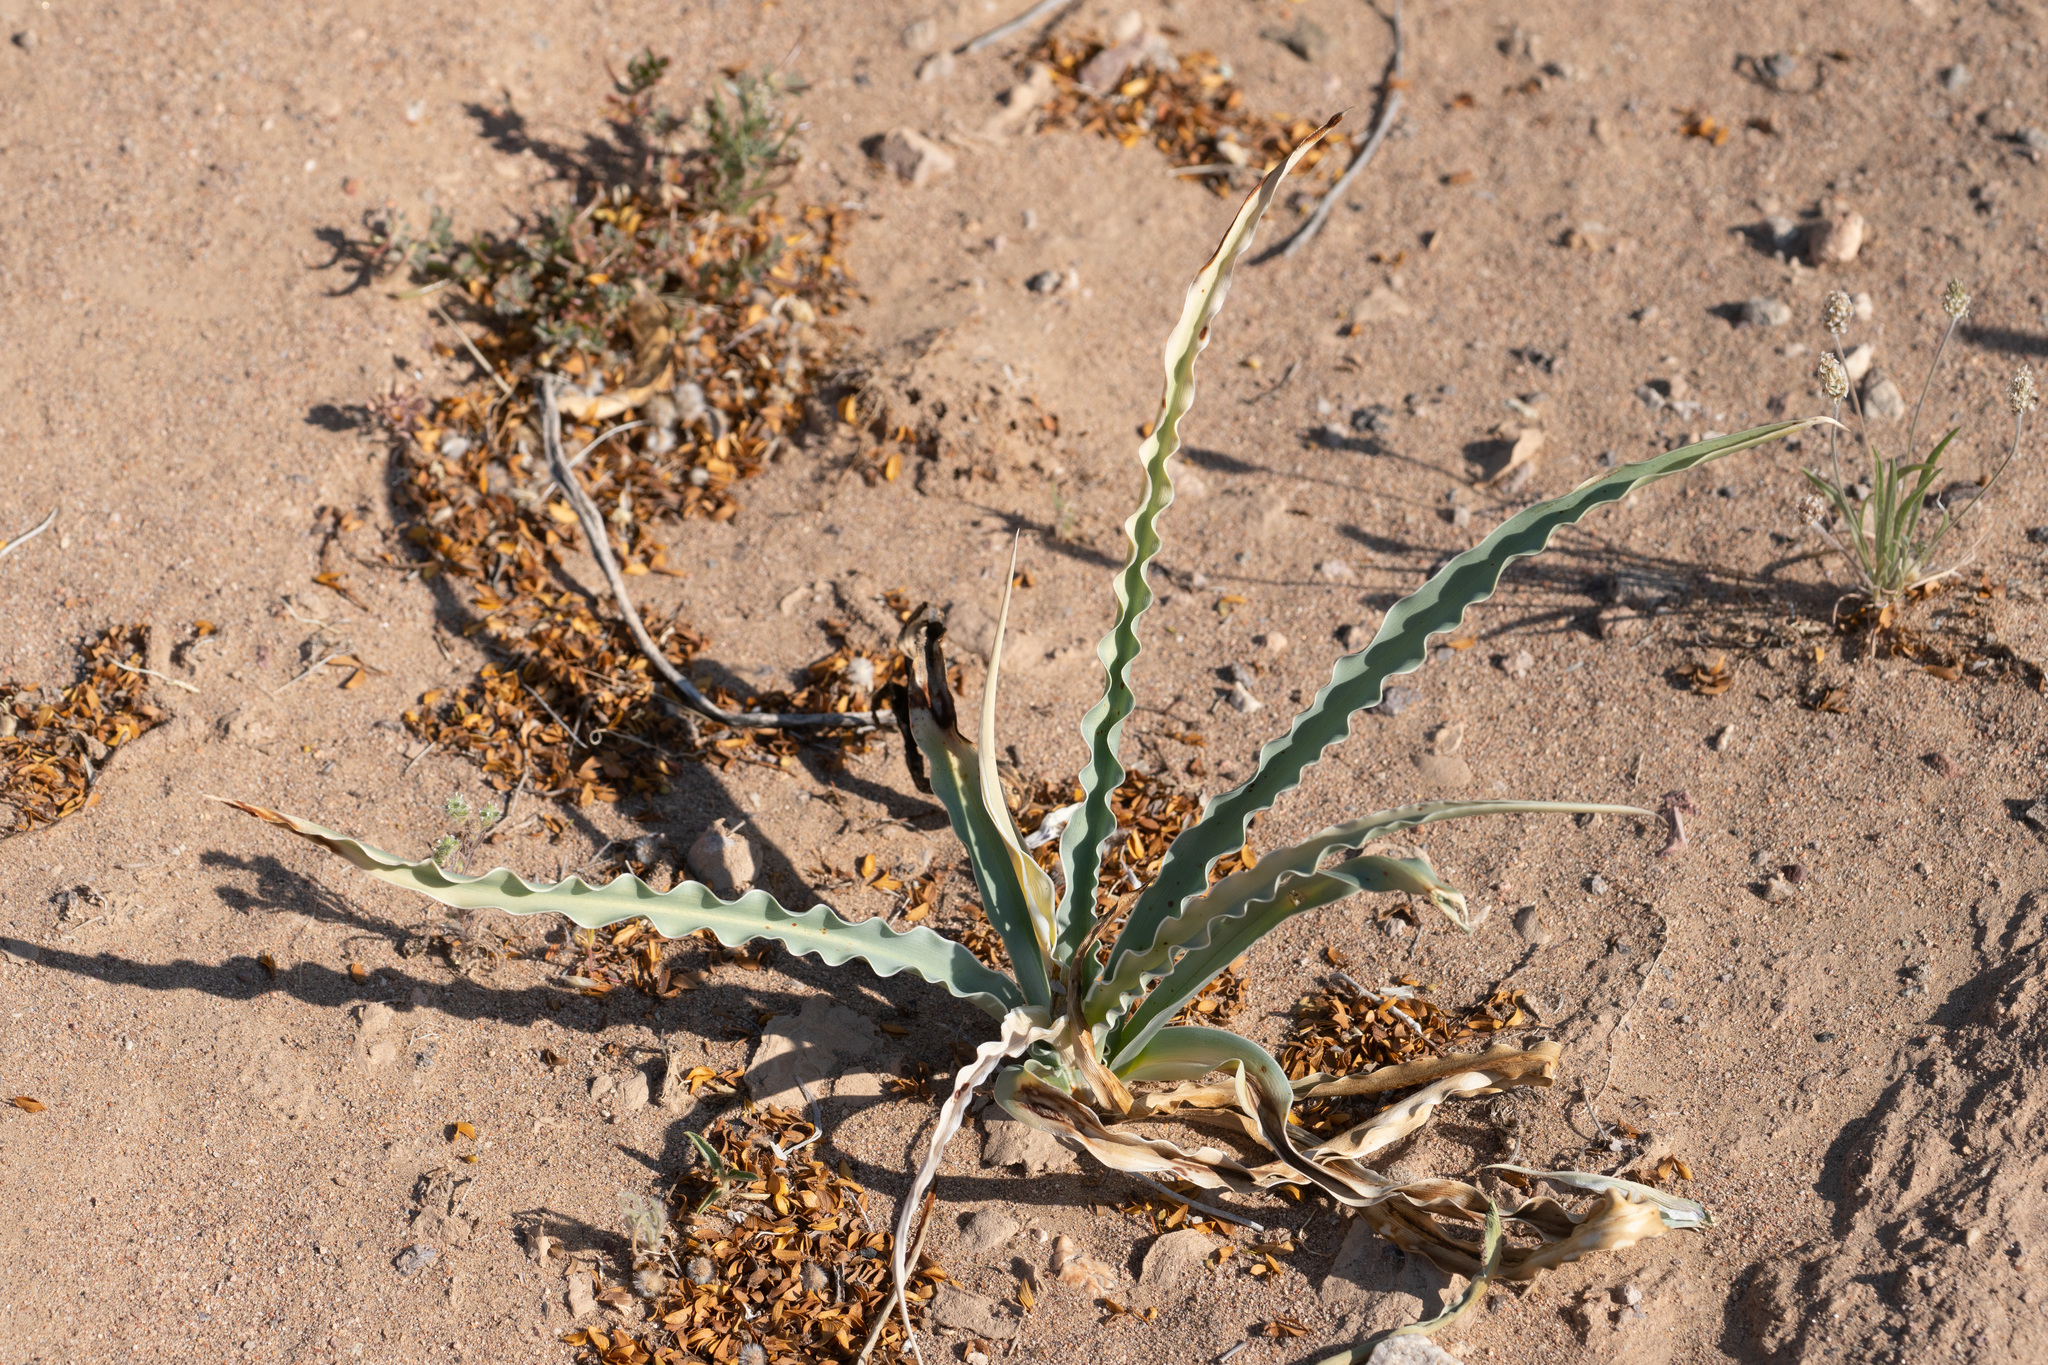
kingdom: Plantae
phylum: Tracheophyta
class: Liliopsida
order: Asparagales
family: Asparagaceae
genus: Hesperocallis
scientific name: Hesperocallis undulata
